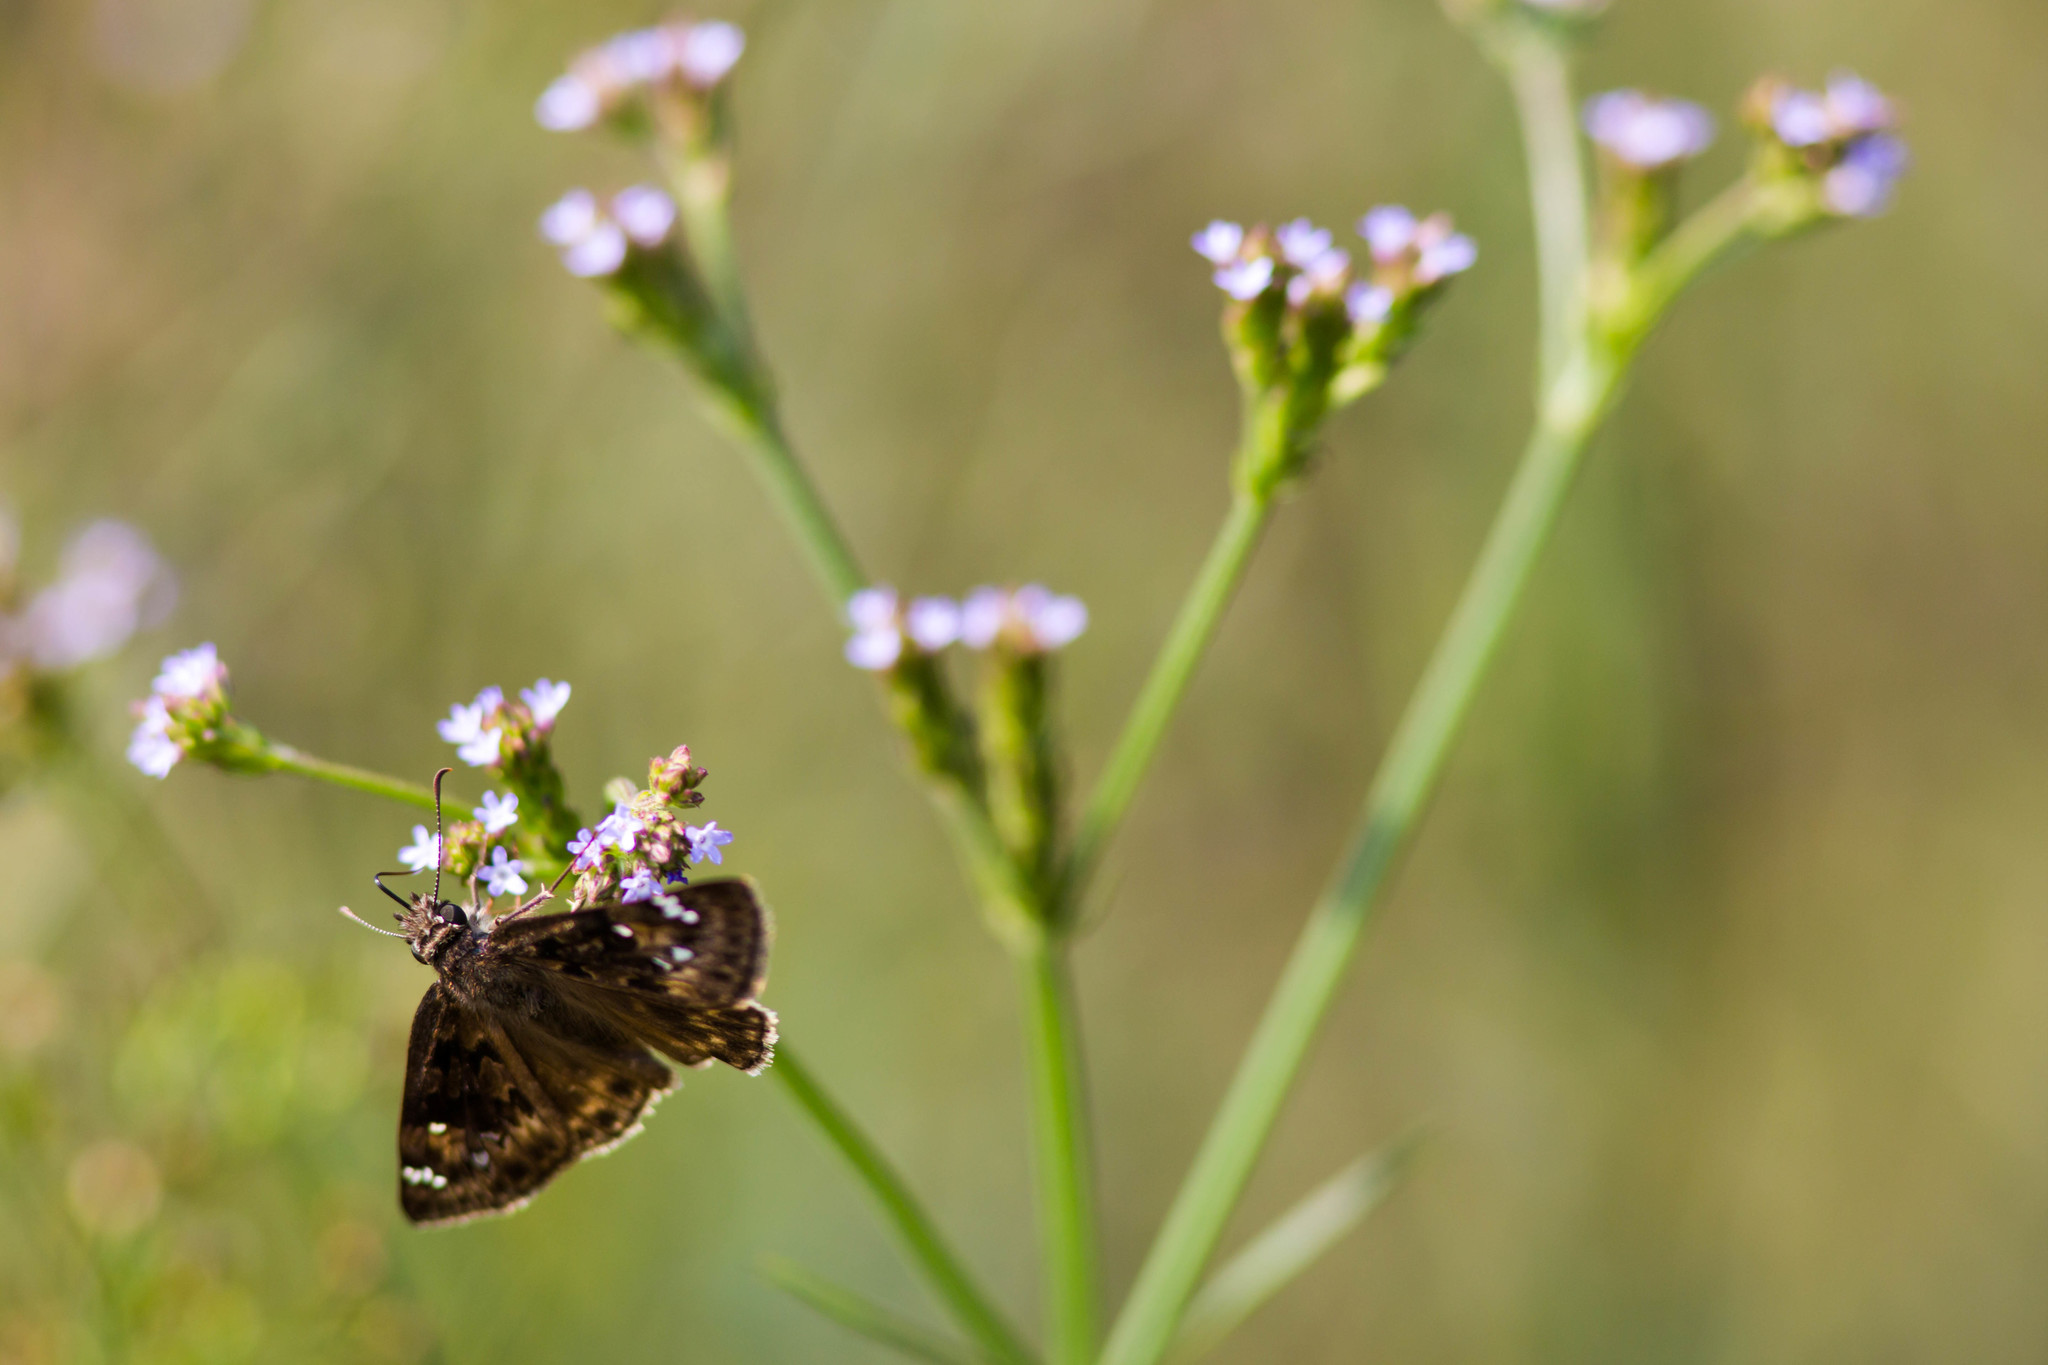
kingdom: Animalia
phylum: Arthropoda
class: Insecta
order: Lepidoptera
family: Hesperiidae
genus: Erynnis
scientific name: Erynnis horatius
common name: Horace's duskywing
